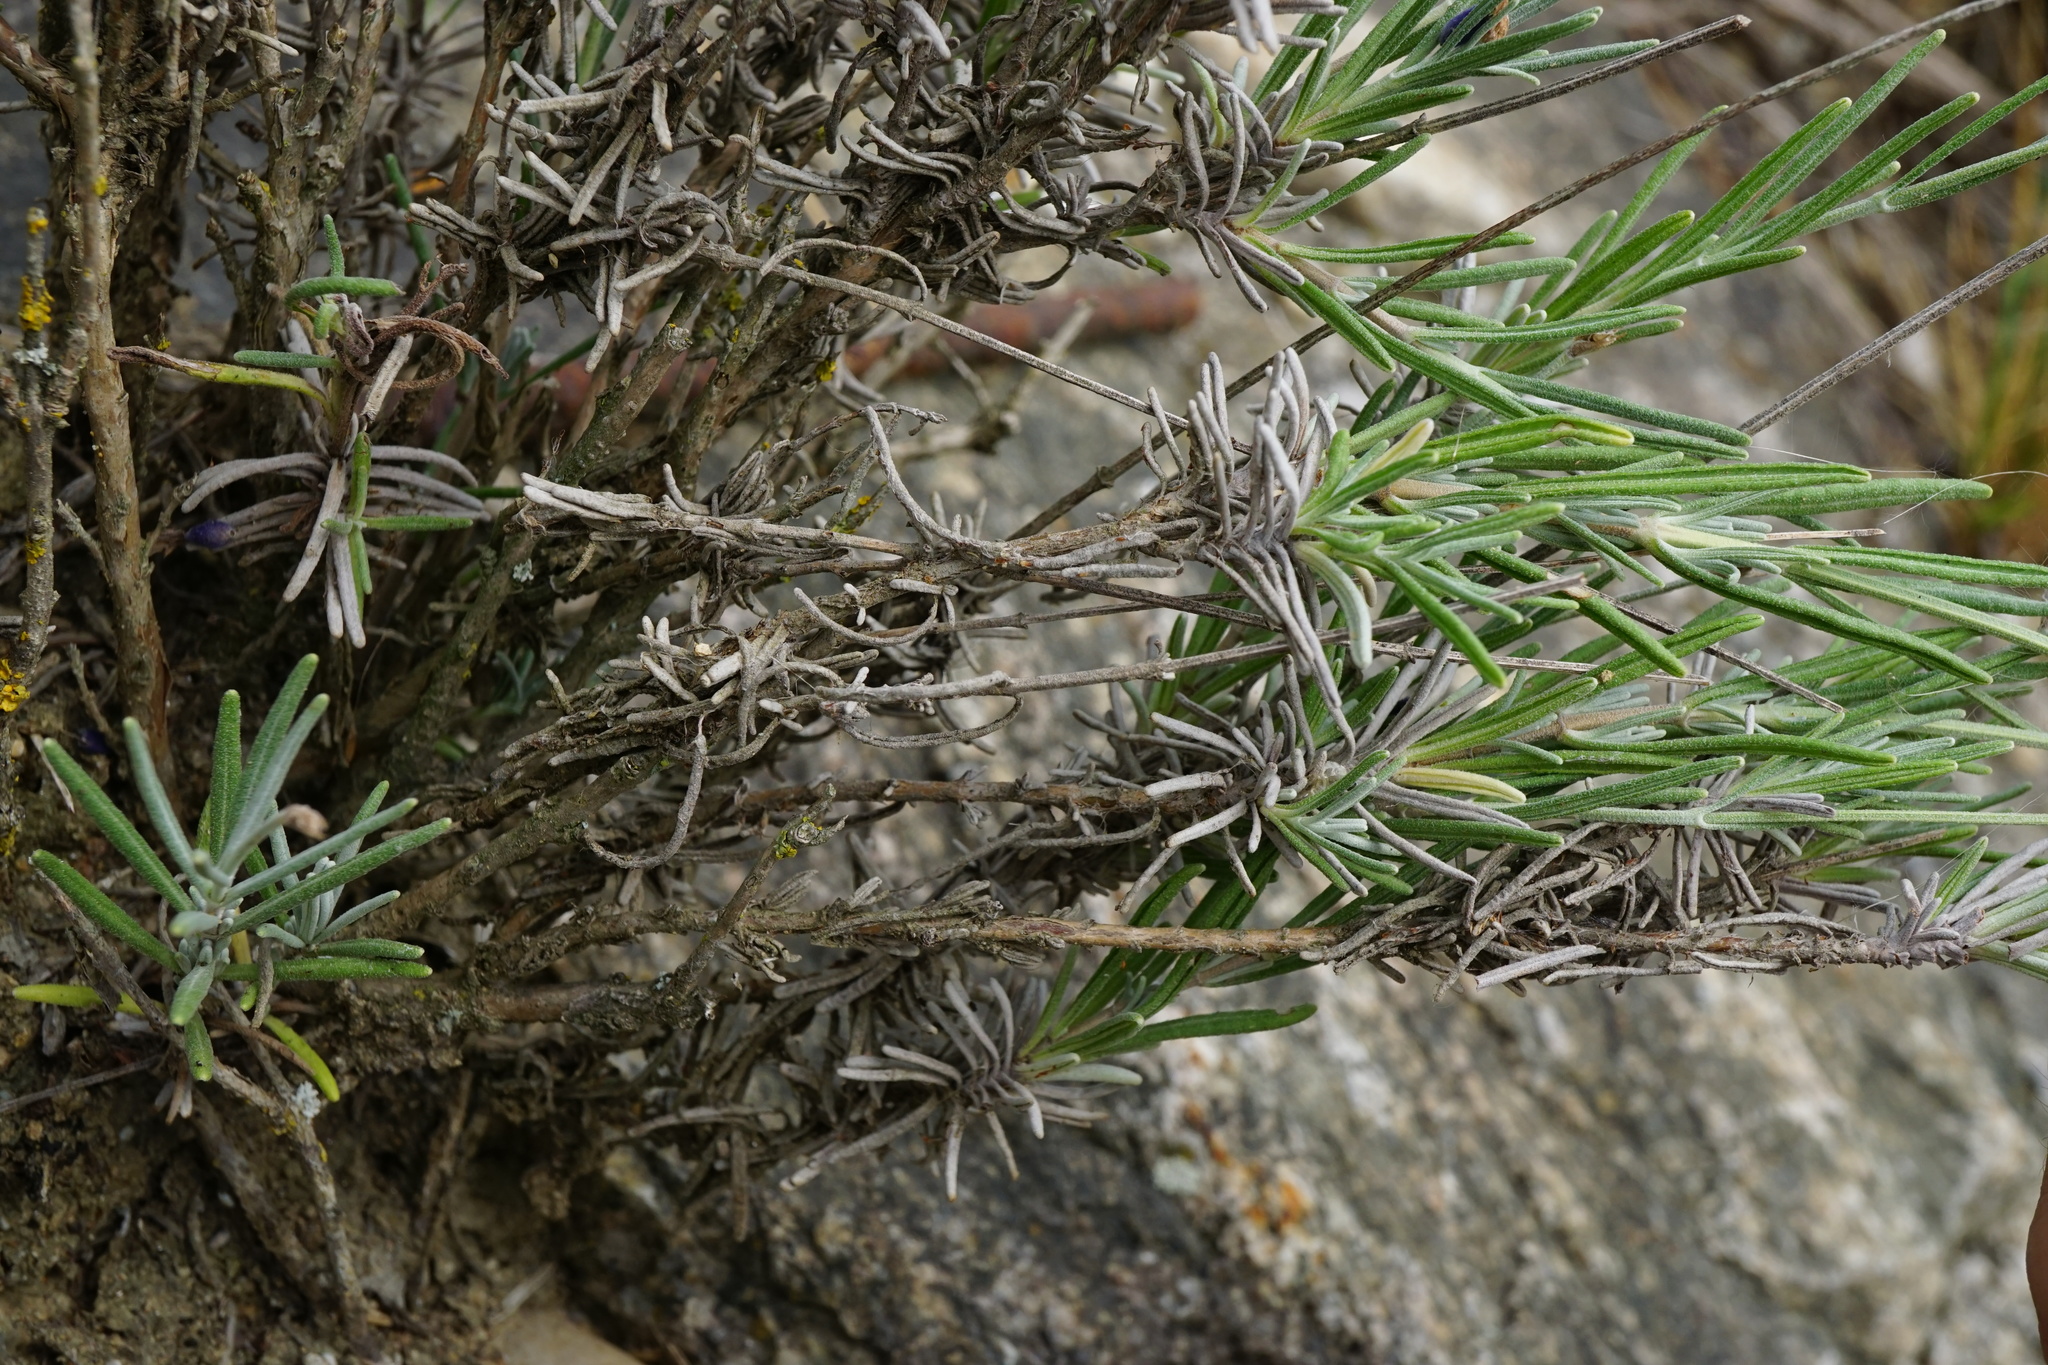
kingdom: Plantae
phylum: Tracheophyta
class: Magnoliopsida
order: Lamiales
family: Lamiaceae
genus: Lavandula
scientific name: Lavandula angustifolia
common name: Garden lavender
